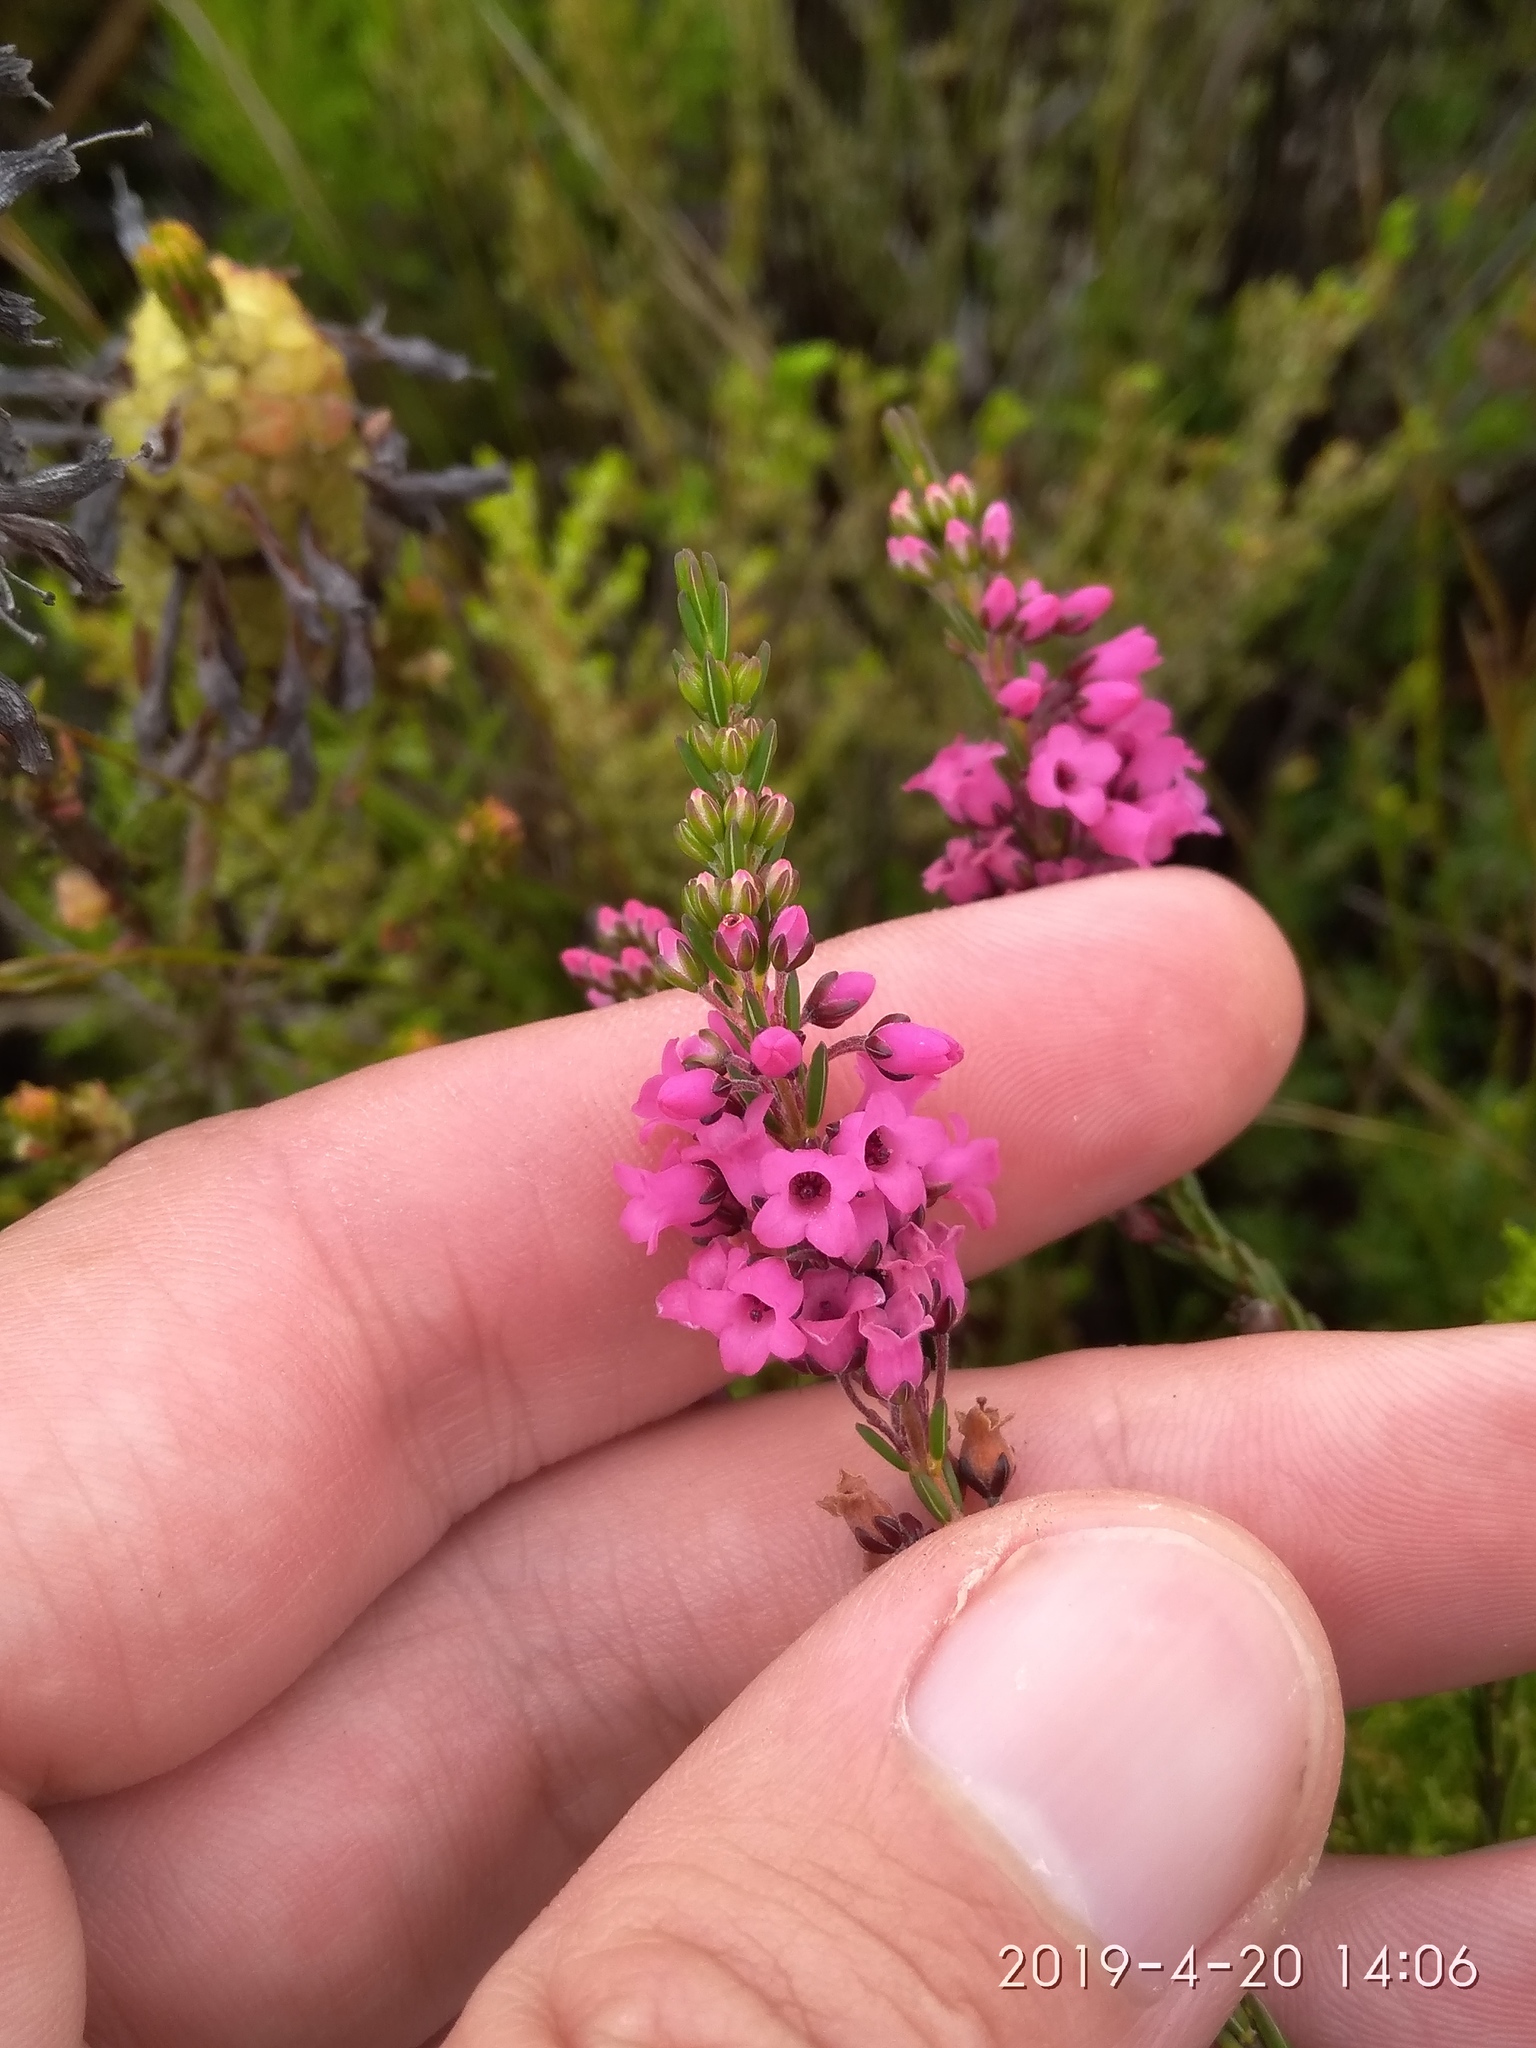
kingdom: Plantae
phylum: Tracheophyta
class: Magnoliopsida
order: Ericales
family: Ericaceae
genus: Erica
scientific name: Erica pulchella
